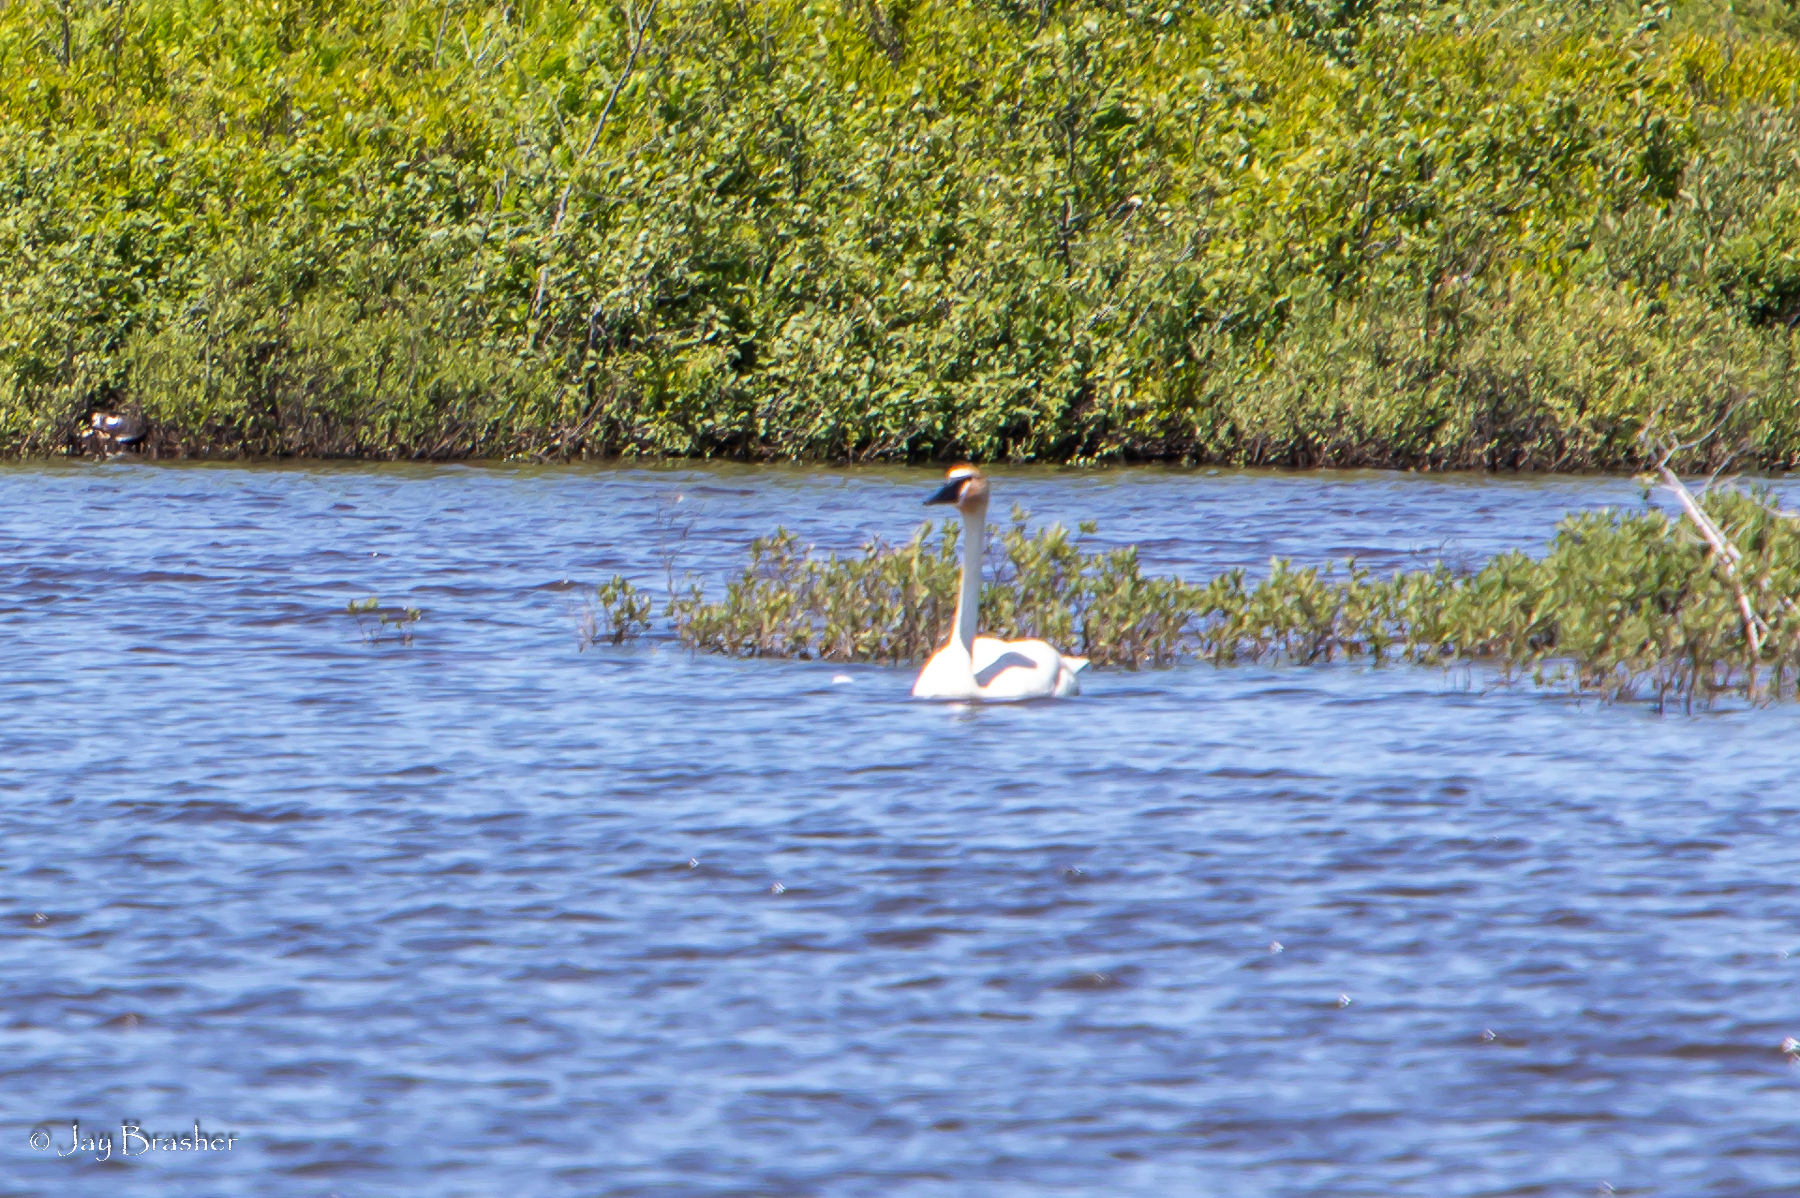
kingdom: Animalia
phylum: Chordata
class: Aves
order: Anseriformes
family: Anatidae
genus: Cygnus
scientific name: Cygnus buccinator
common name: Trumpeter swan
